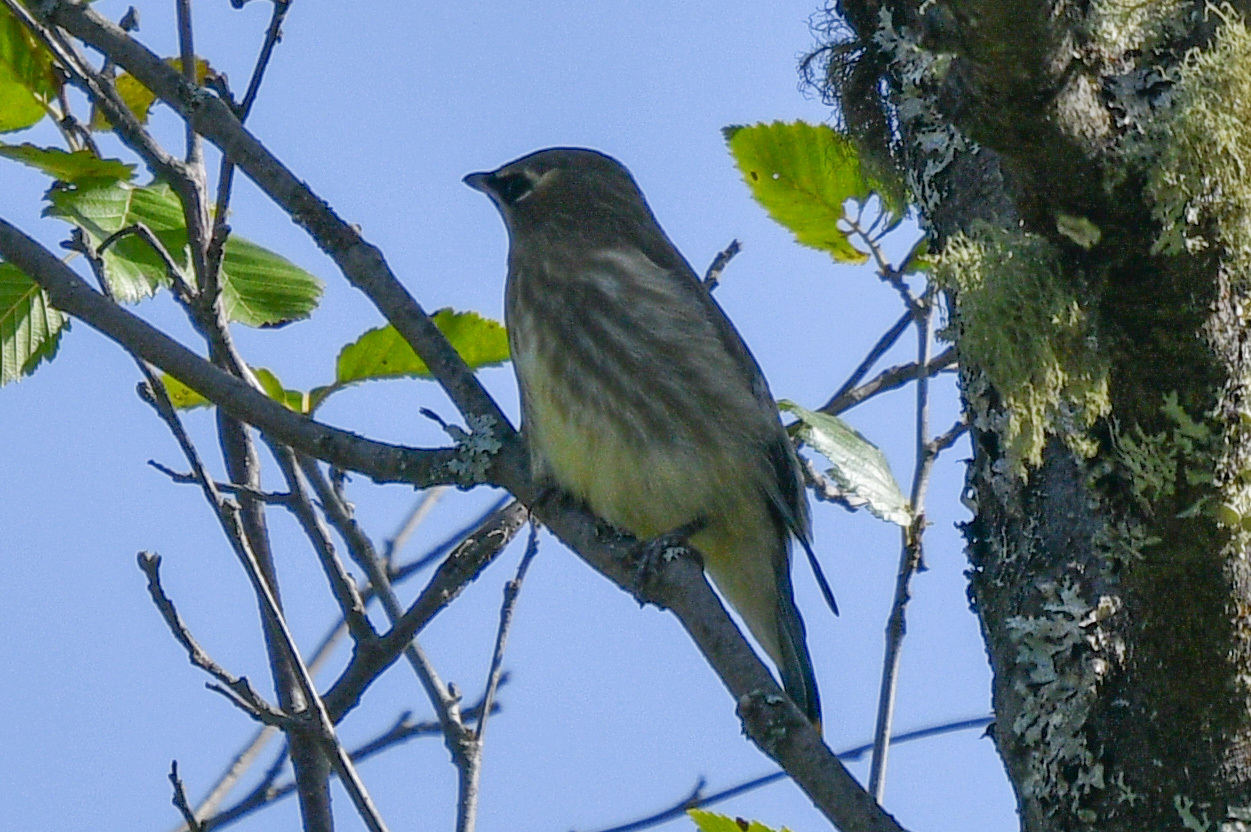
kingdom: Animalia
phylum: Chordata
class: Aves
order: Passeriformes
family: Bombycillidae
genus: Bombycilla
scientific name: Bombycilla cedrorum
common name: Cedar waxwing
